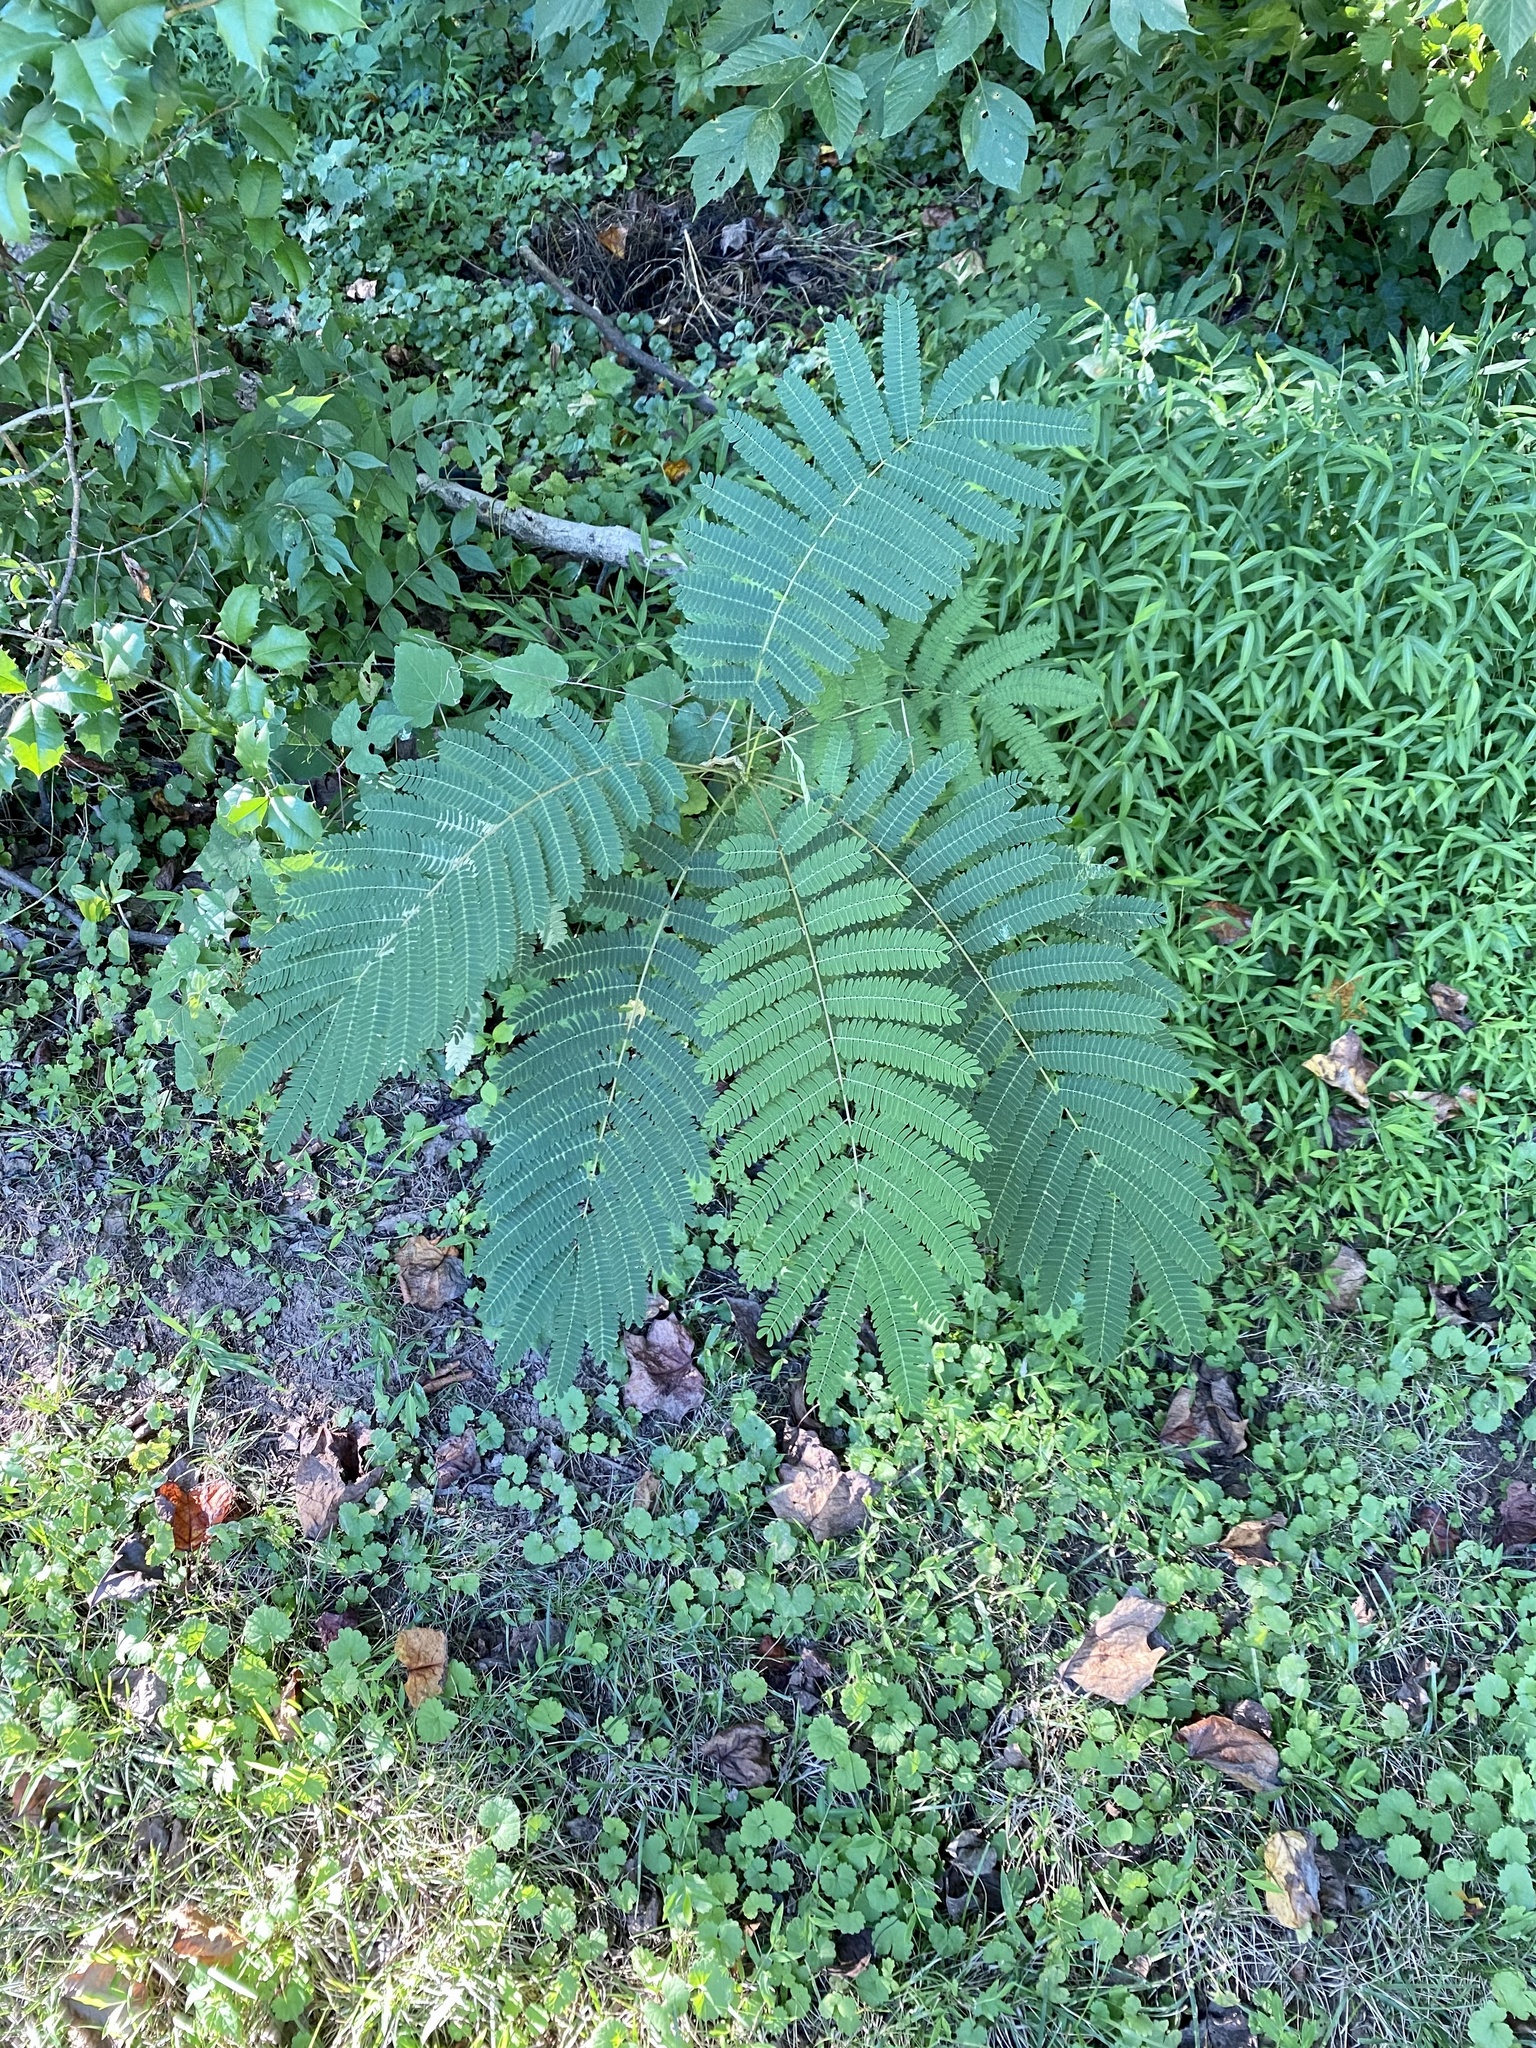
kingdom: Plantae
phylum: Tracheophyta
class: Magnoliopsida
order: Fabales
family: Fabaceae
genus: Albizia
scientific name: Albizia julibrissin
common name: Silktree
